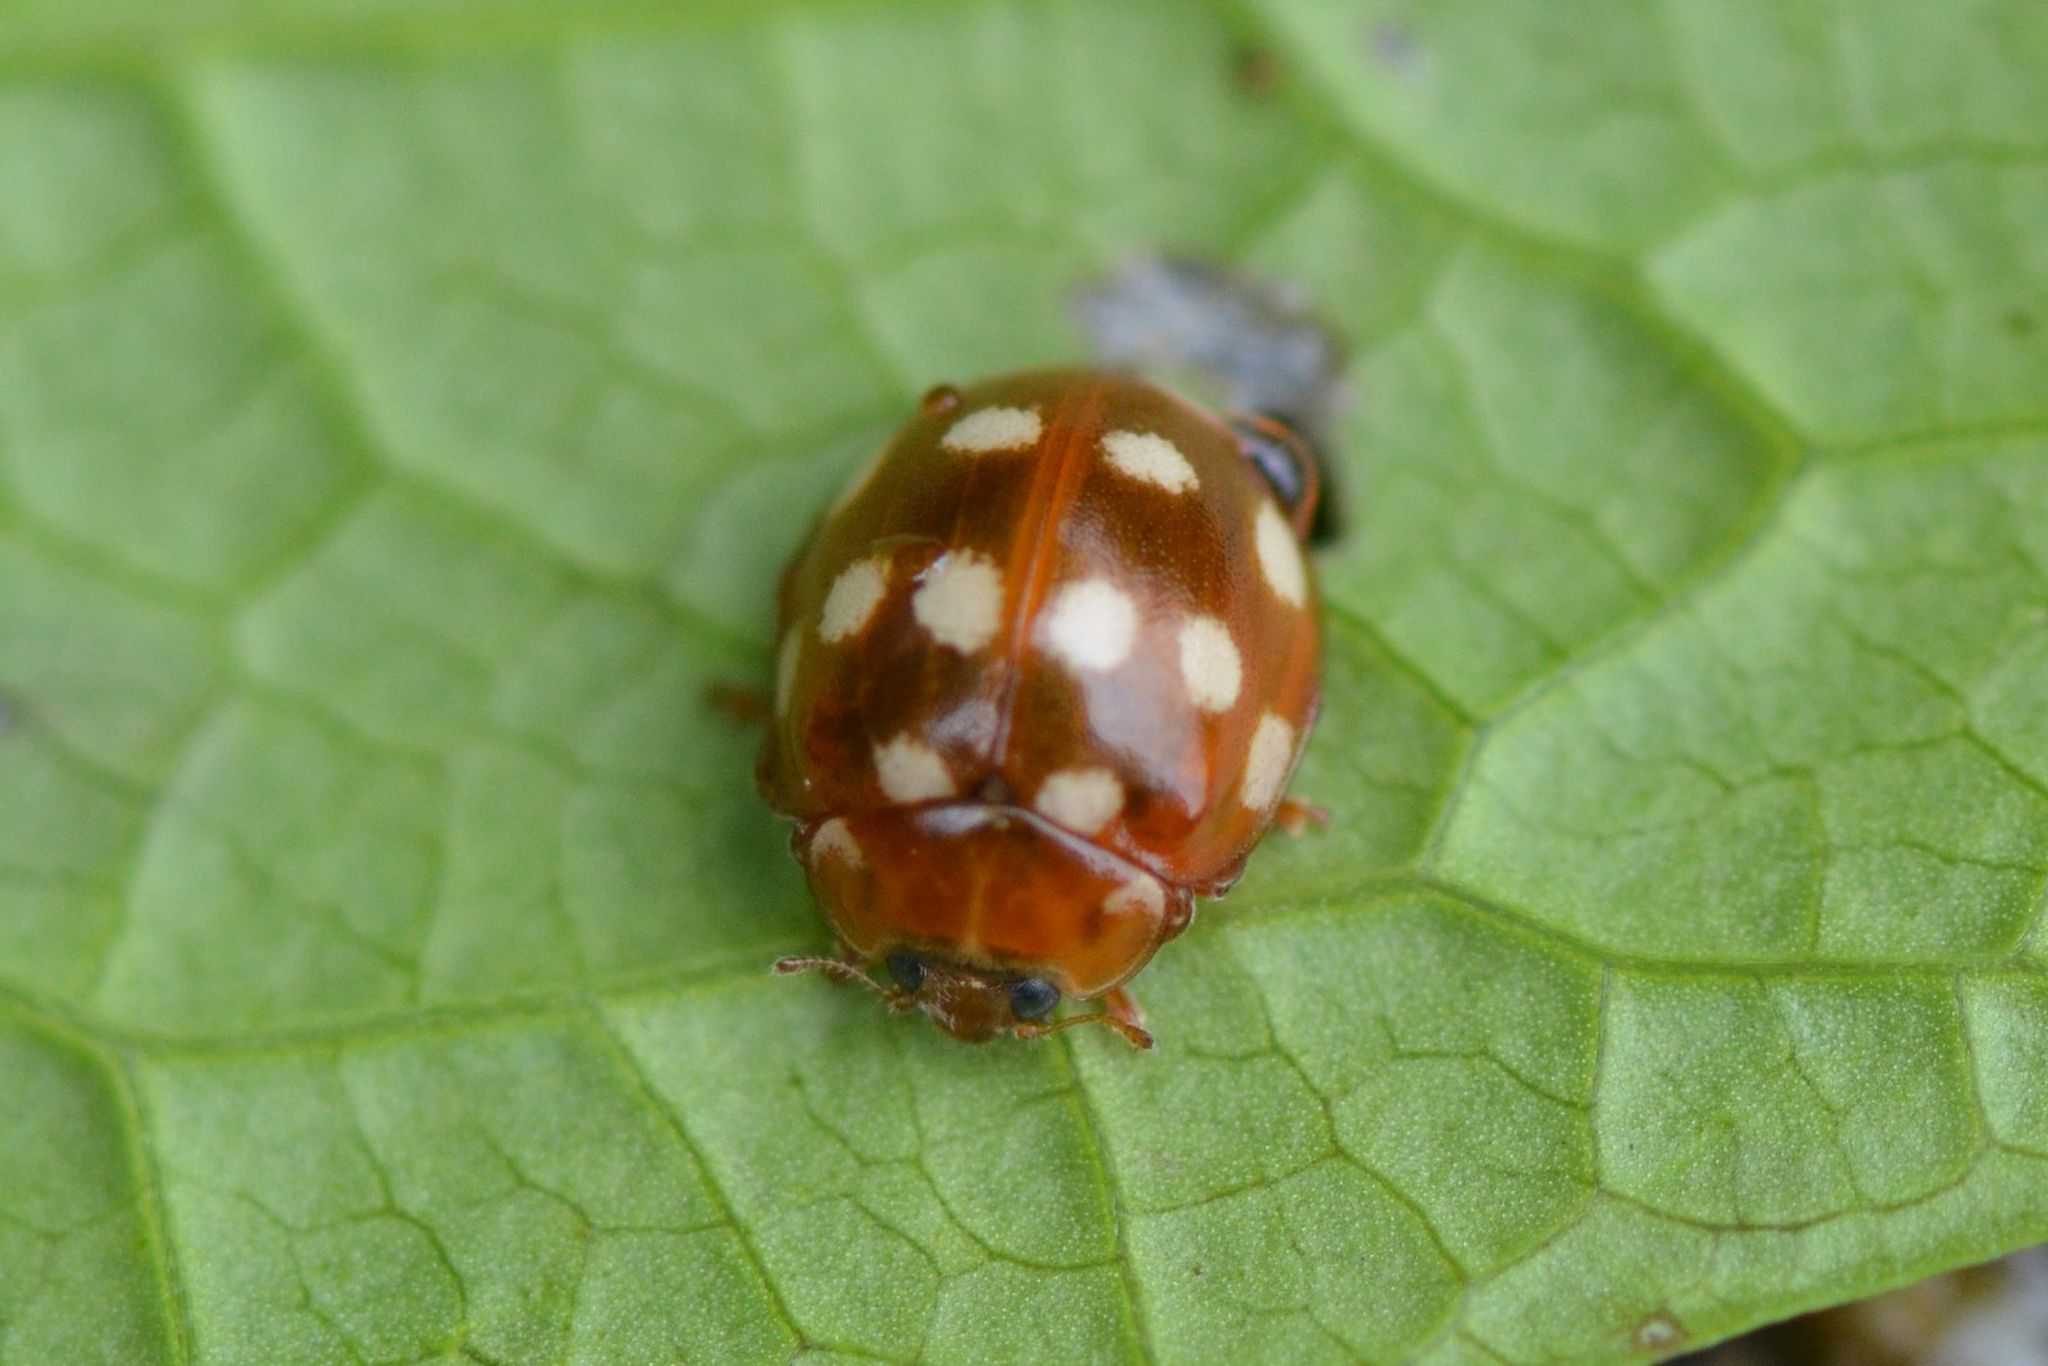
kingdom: Animalia
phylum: Arthropoda
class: Insecta
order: Coleoptera
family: Coccinellidae
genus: Calvia
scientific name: Calvia quatuordecimguttata
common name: Cream-spot ladybird
